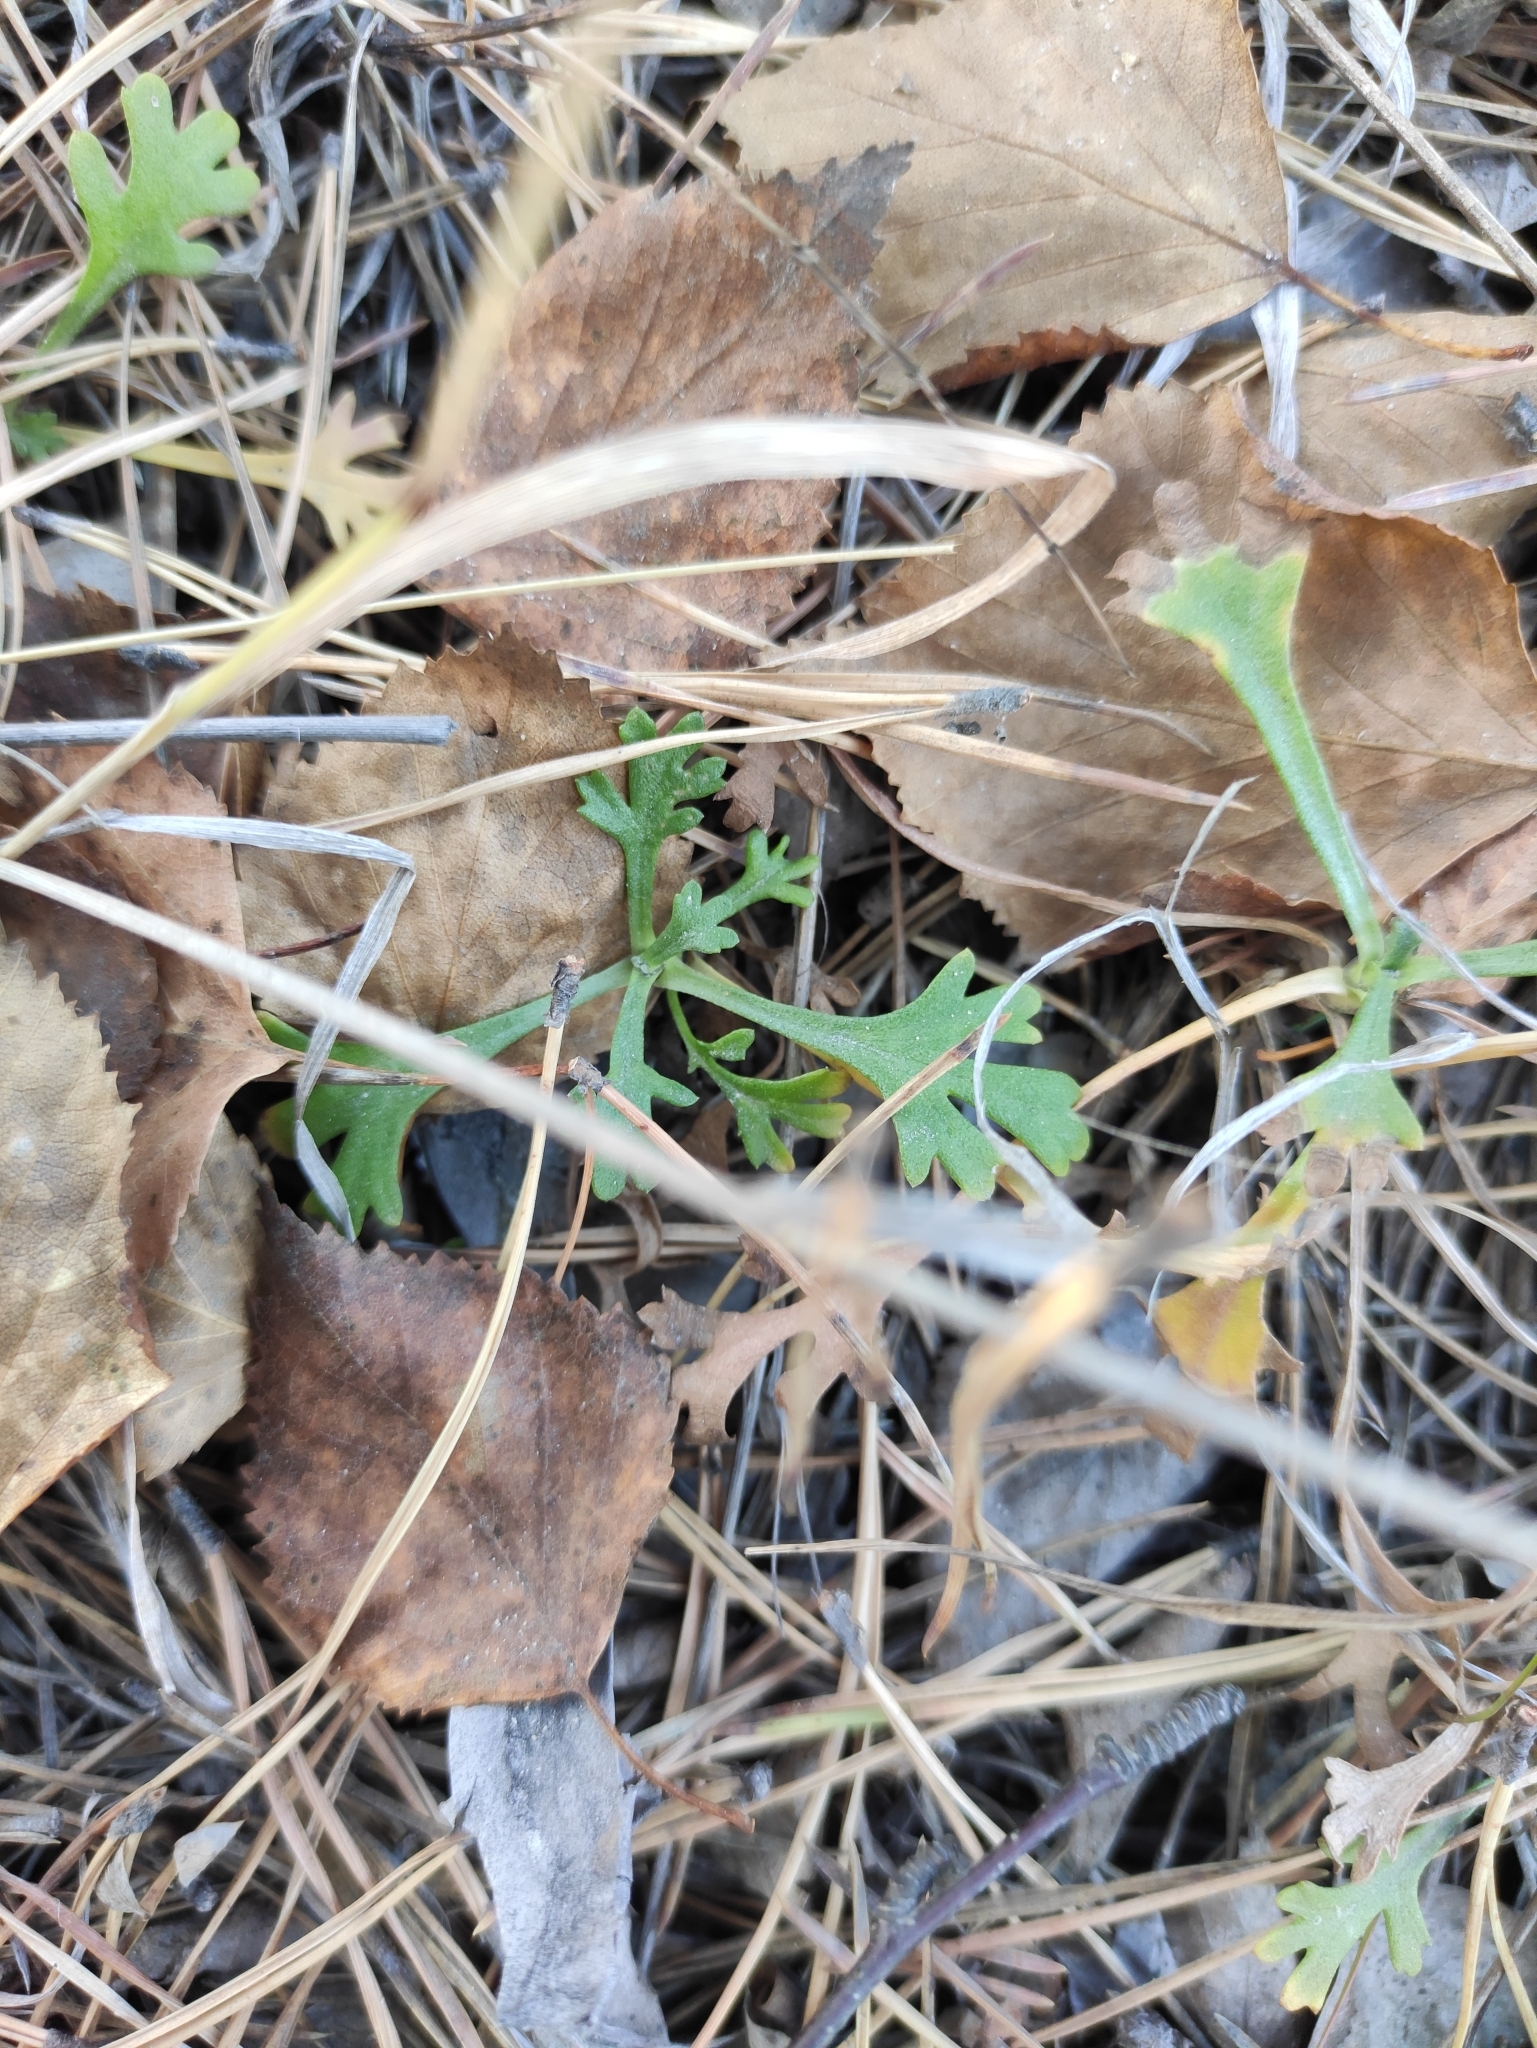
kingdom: Plantae
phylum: Tracheophyta
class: Magnoliopsida
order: Asterales
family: Asteraceae
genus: Chrysanthemum
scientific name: Chrysanthemum zawadzkii
